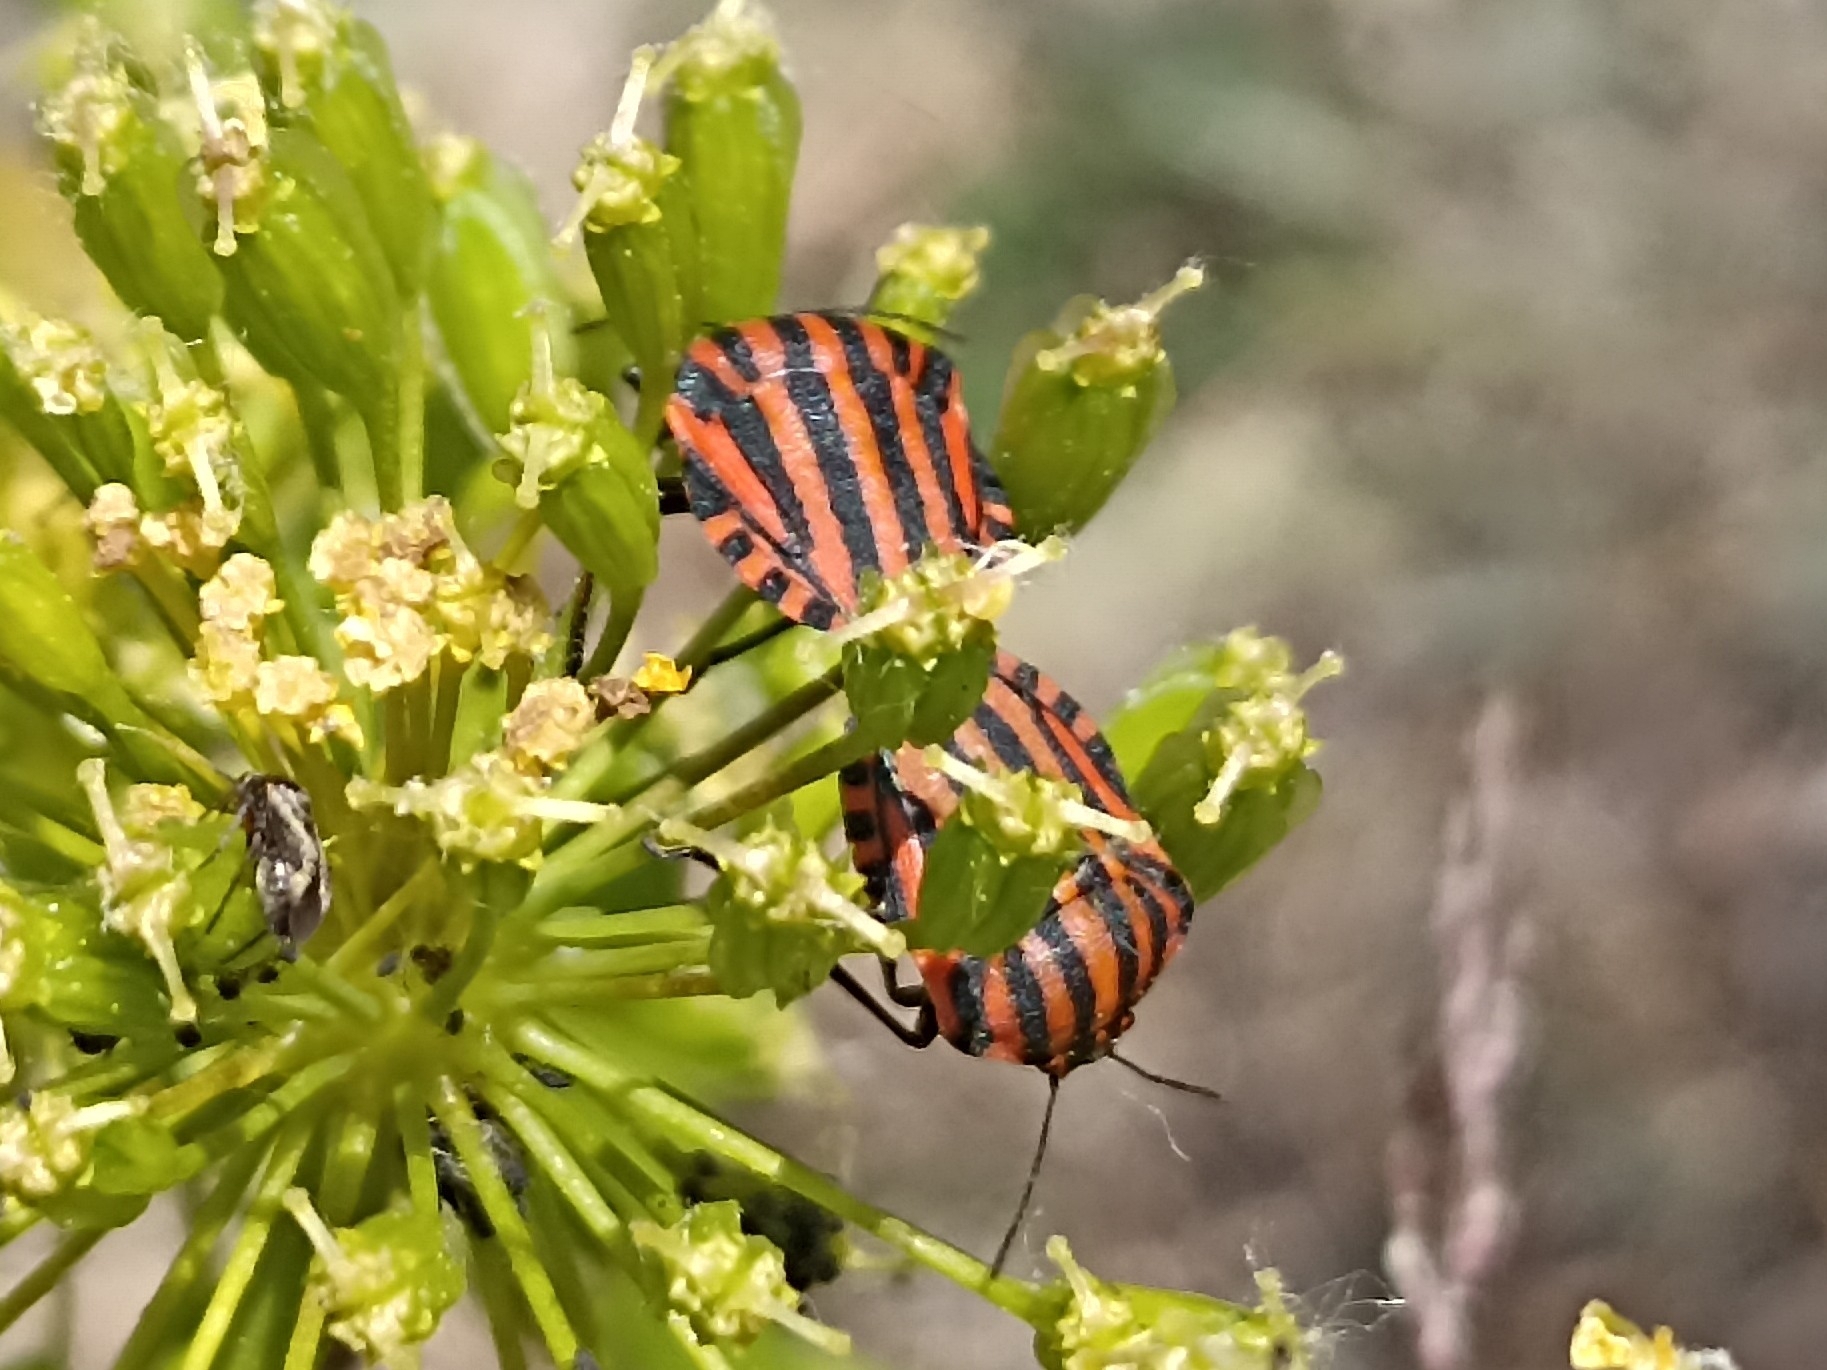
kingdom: Animalia
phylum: Arthropoda
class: Insecta
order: Hemiptera
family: Pentatomidae
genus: Graphosoma
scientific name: Graphosoma italicum
